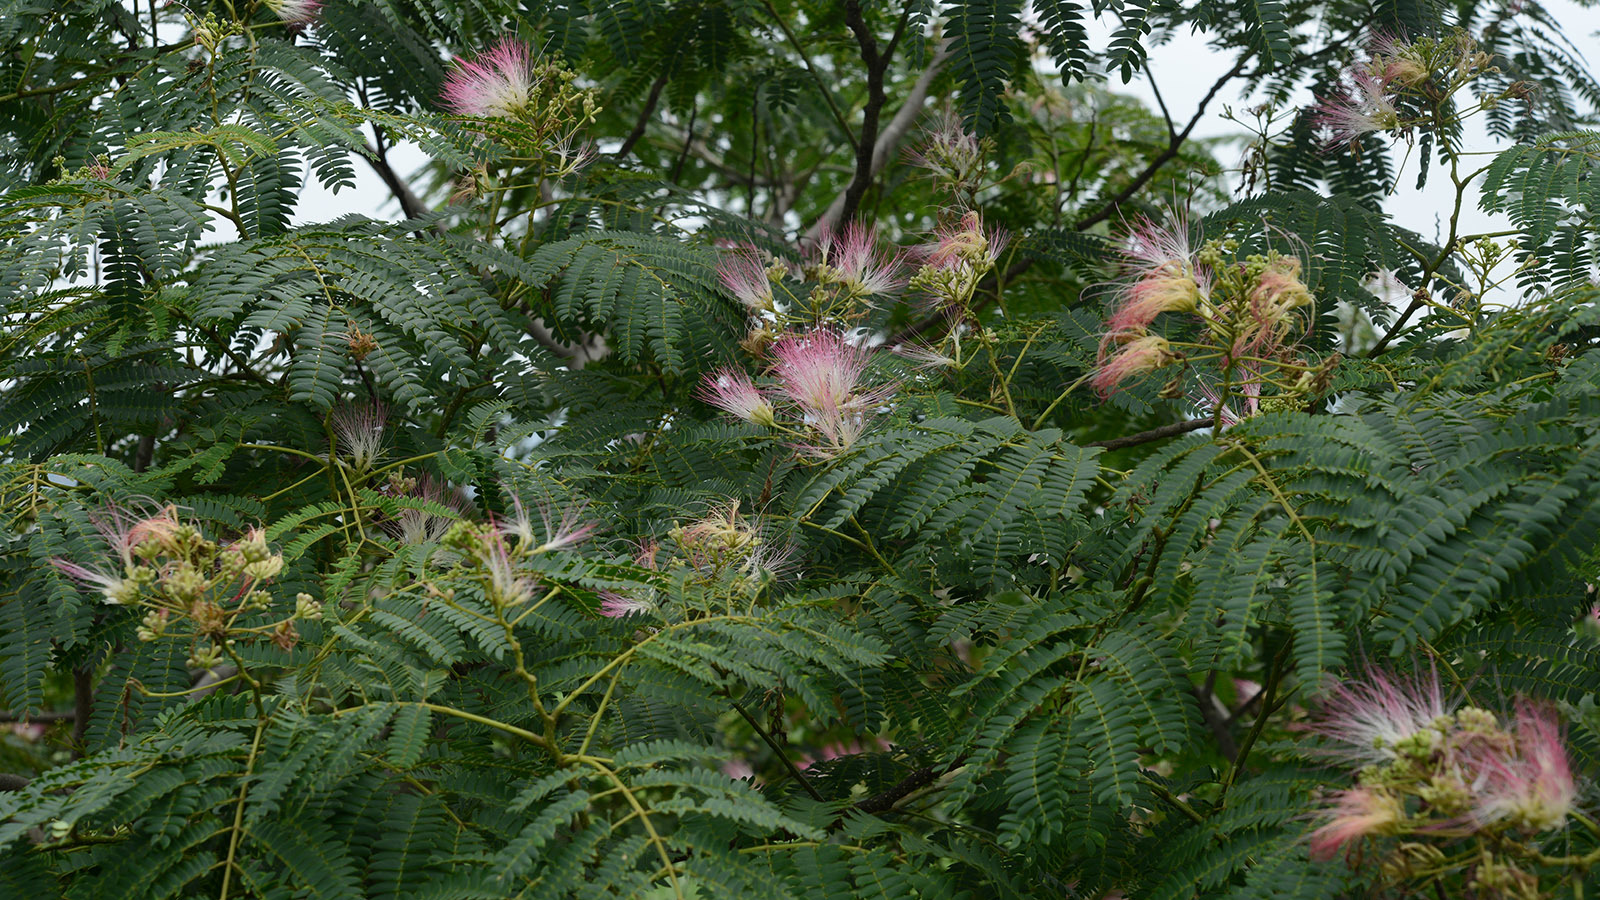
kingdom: Plantae
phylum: Tracheophyta
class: Magnoliopsida
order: Fabales
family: Fabaceae
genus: Albizia
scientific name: Albizia julibrissin
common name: Silktree
